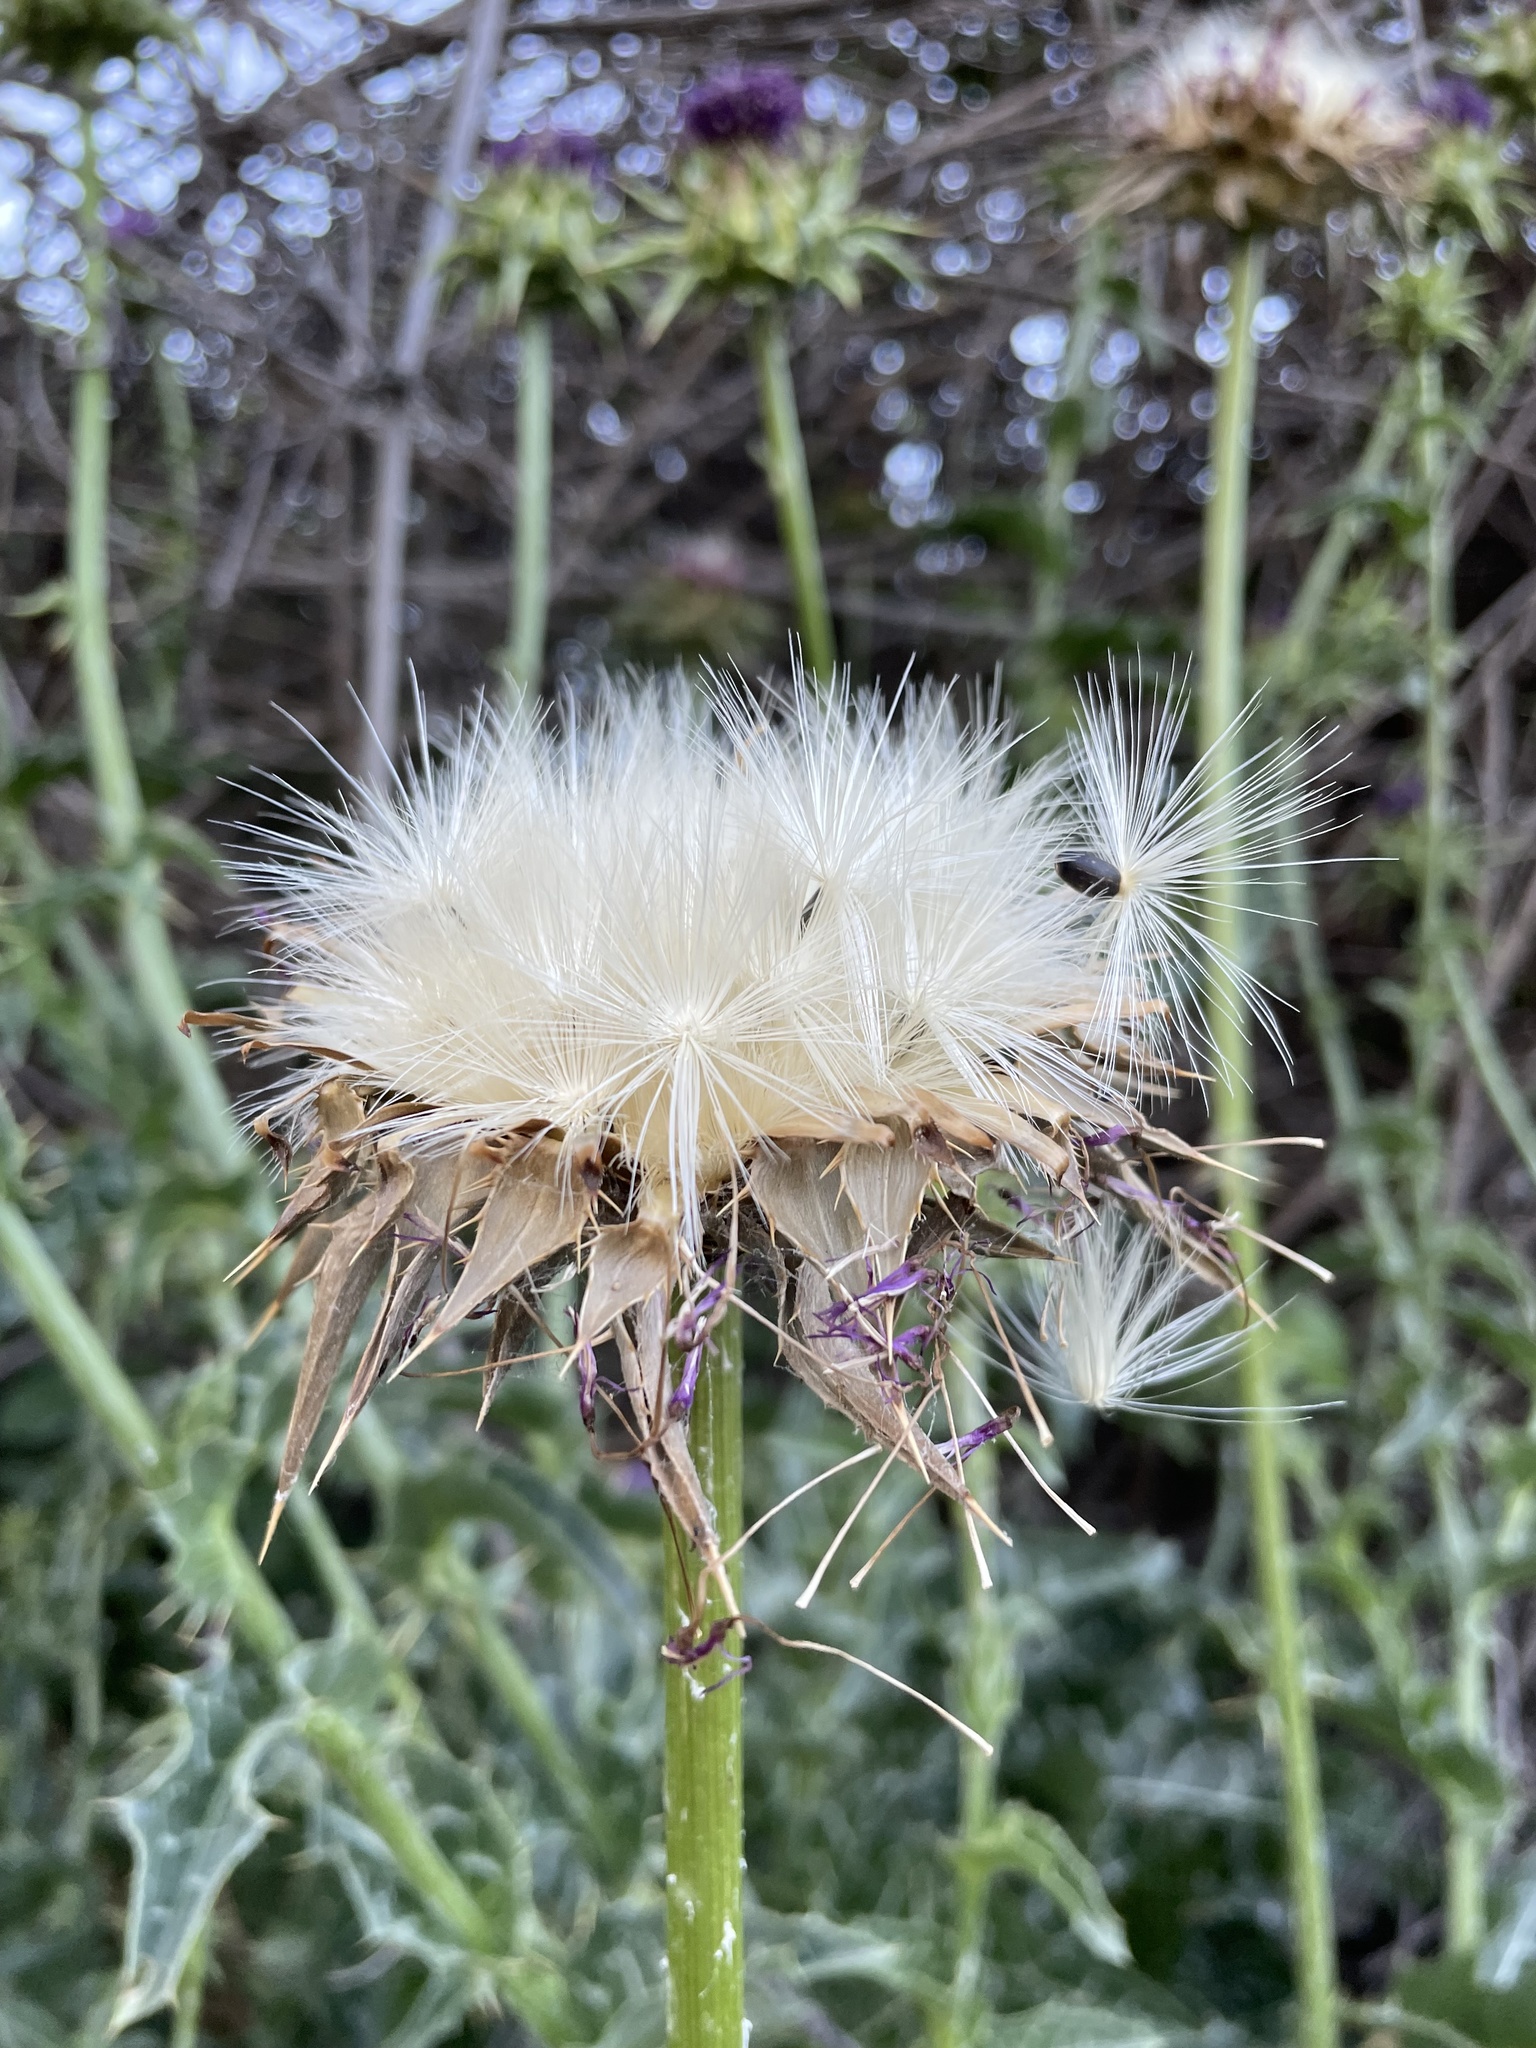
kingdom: Plantae
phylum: Tracheophyta
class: Magnoliopsida
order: Asterales
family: Asteraceae
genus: Silybum
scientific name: Silybum marianum
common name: Milk thistle
